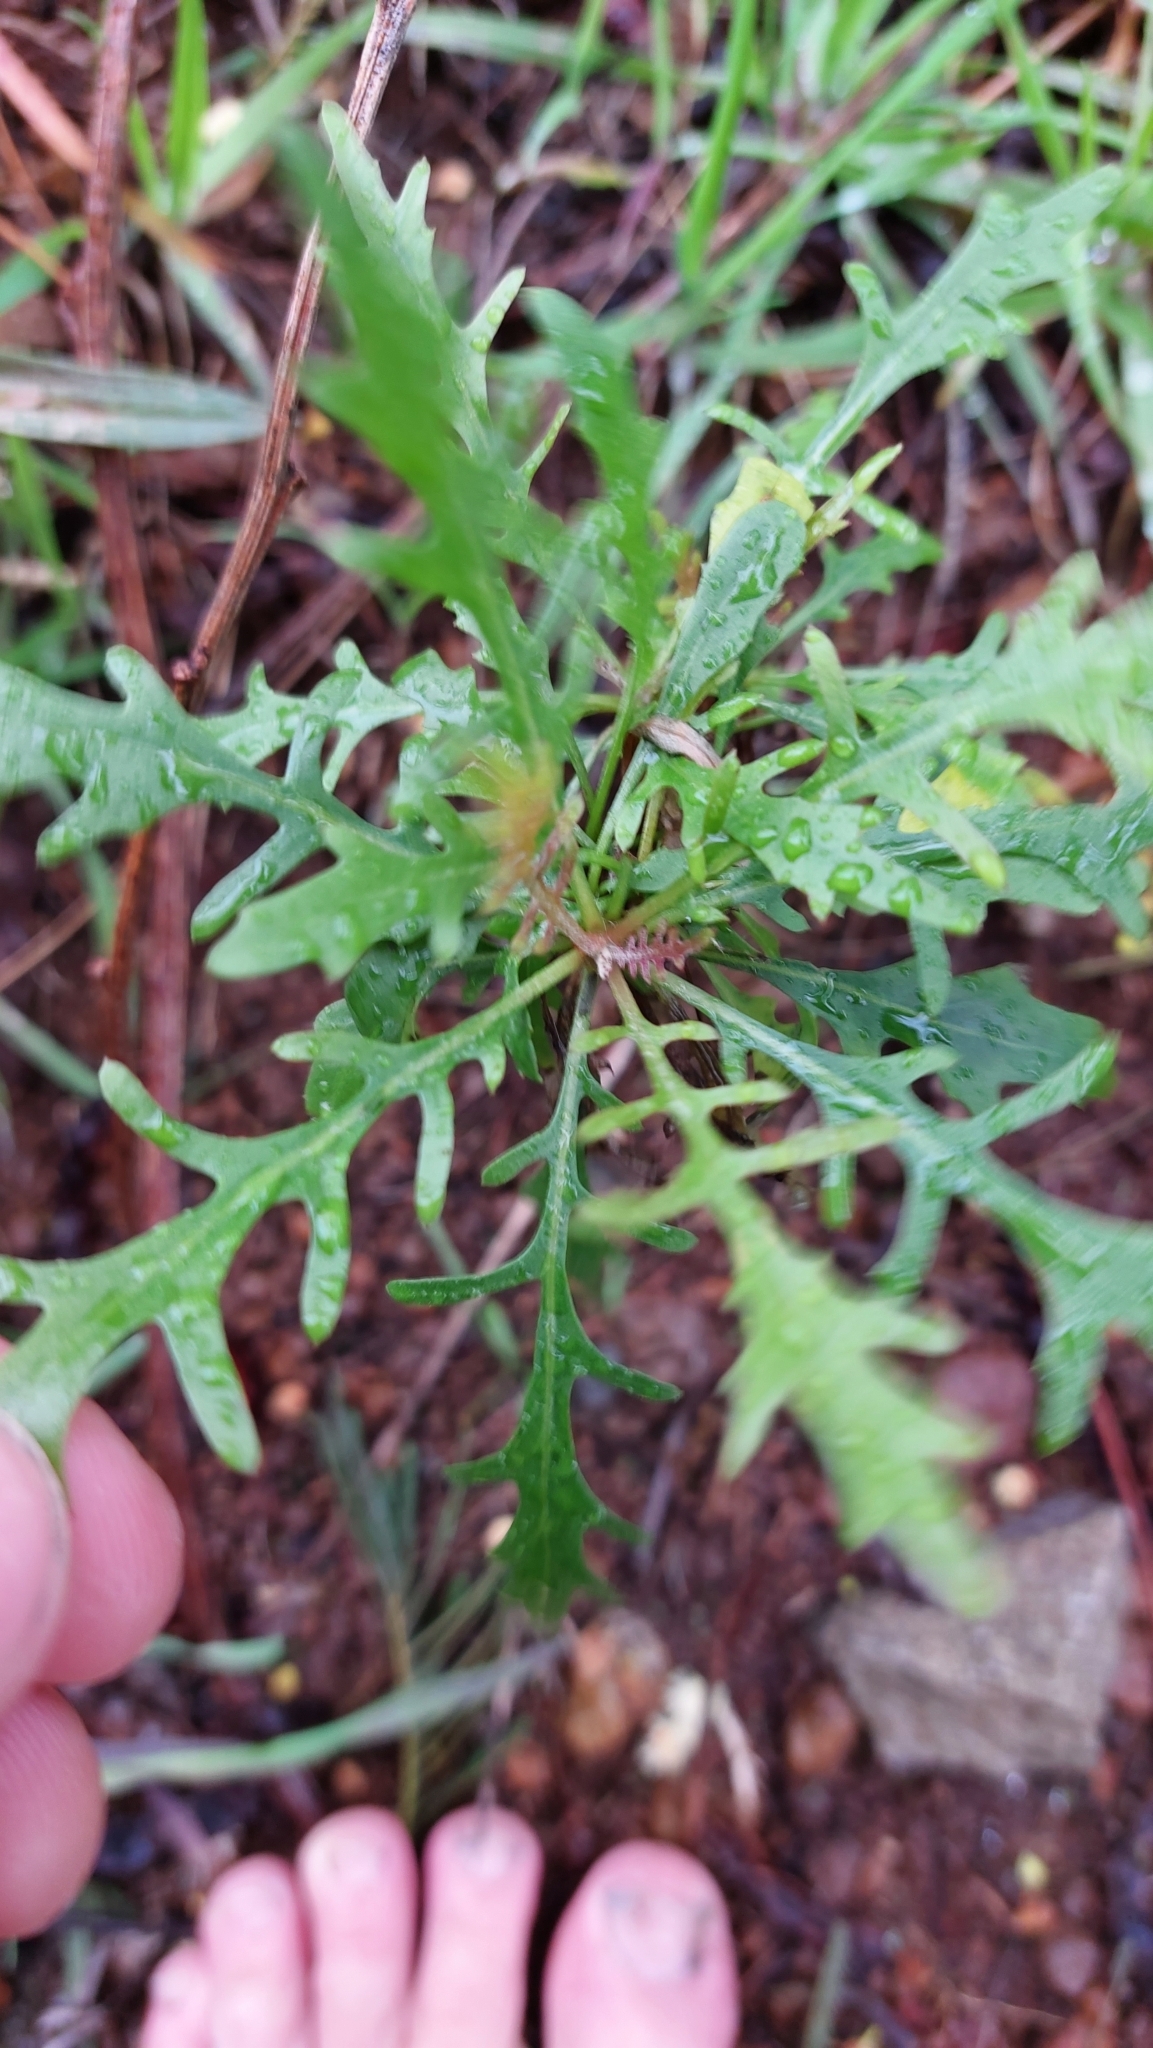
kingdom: Plantae
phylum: Tracheophyta
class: Magnoliopsida
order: Asterales
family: Asteraceae
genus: Tolpis
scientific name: Tolpis succulenta
